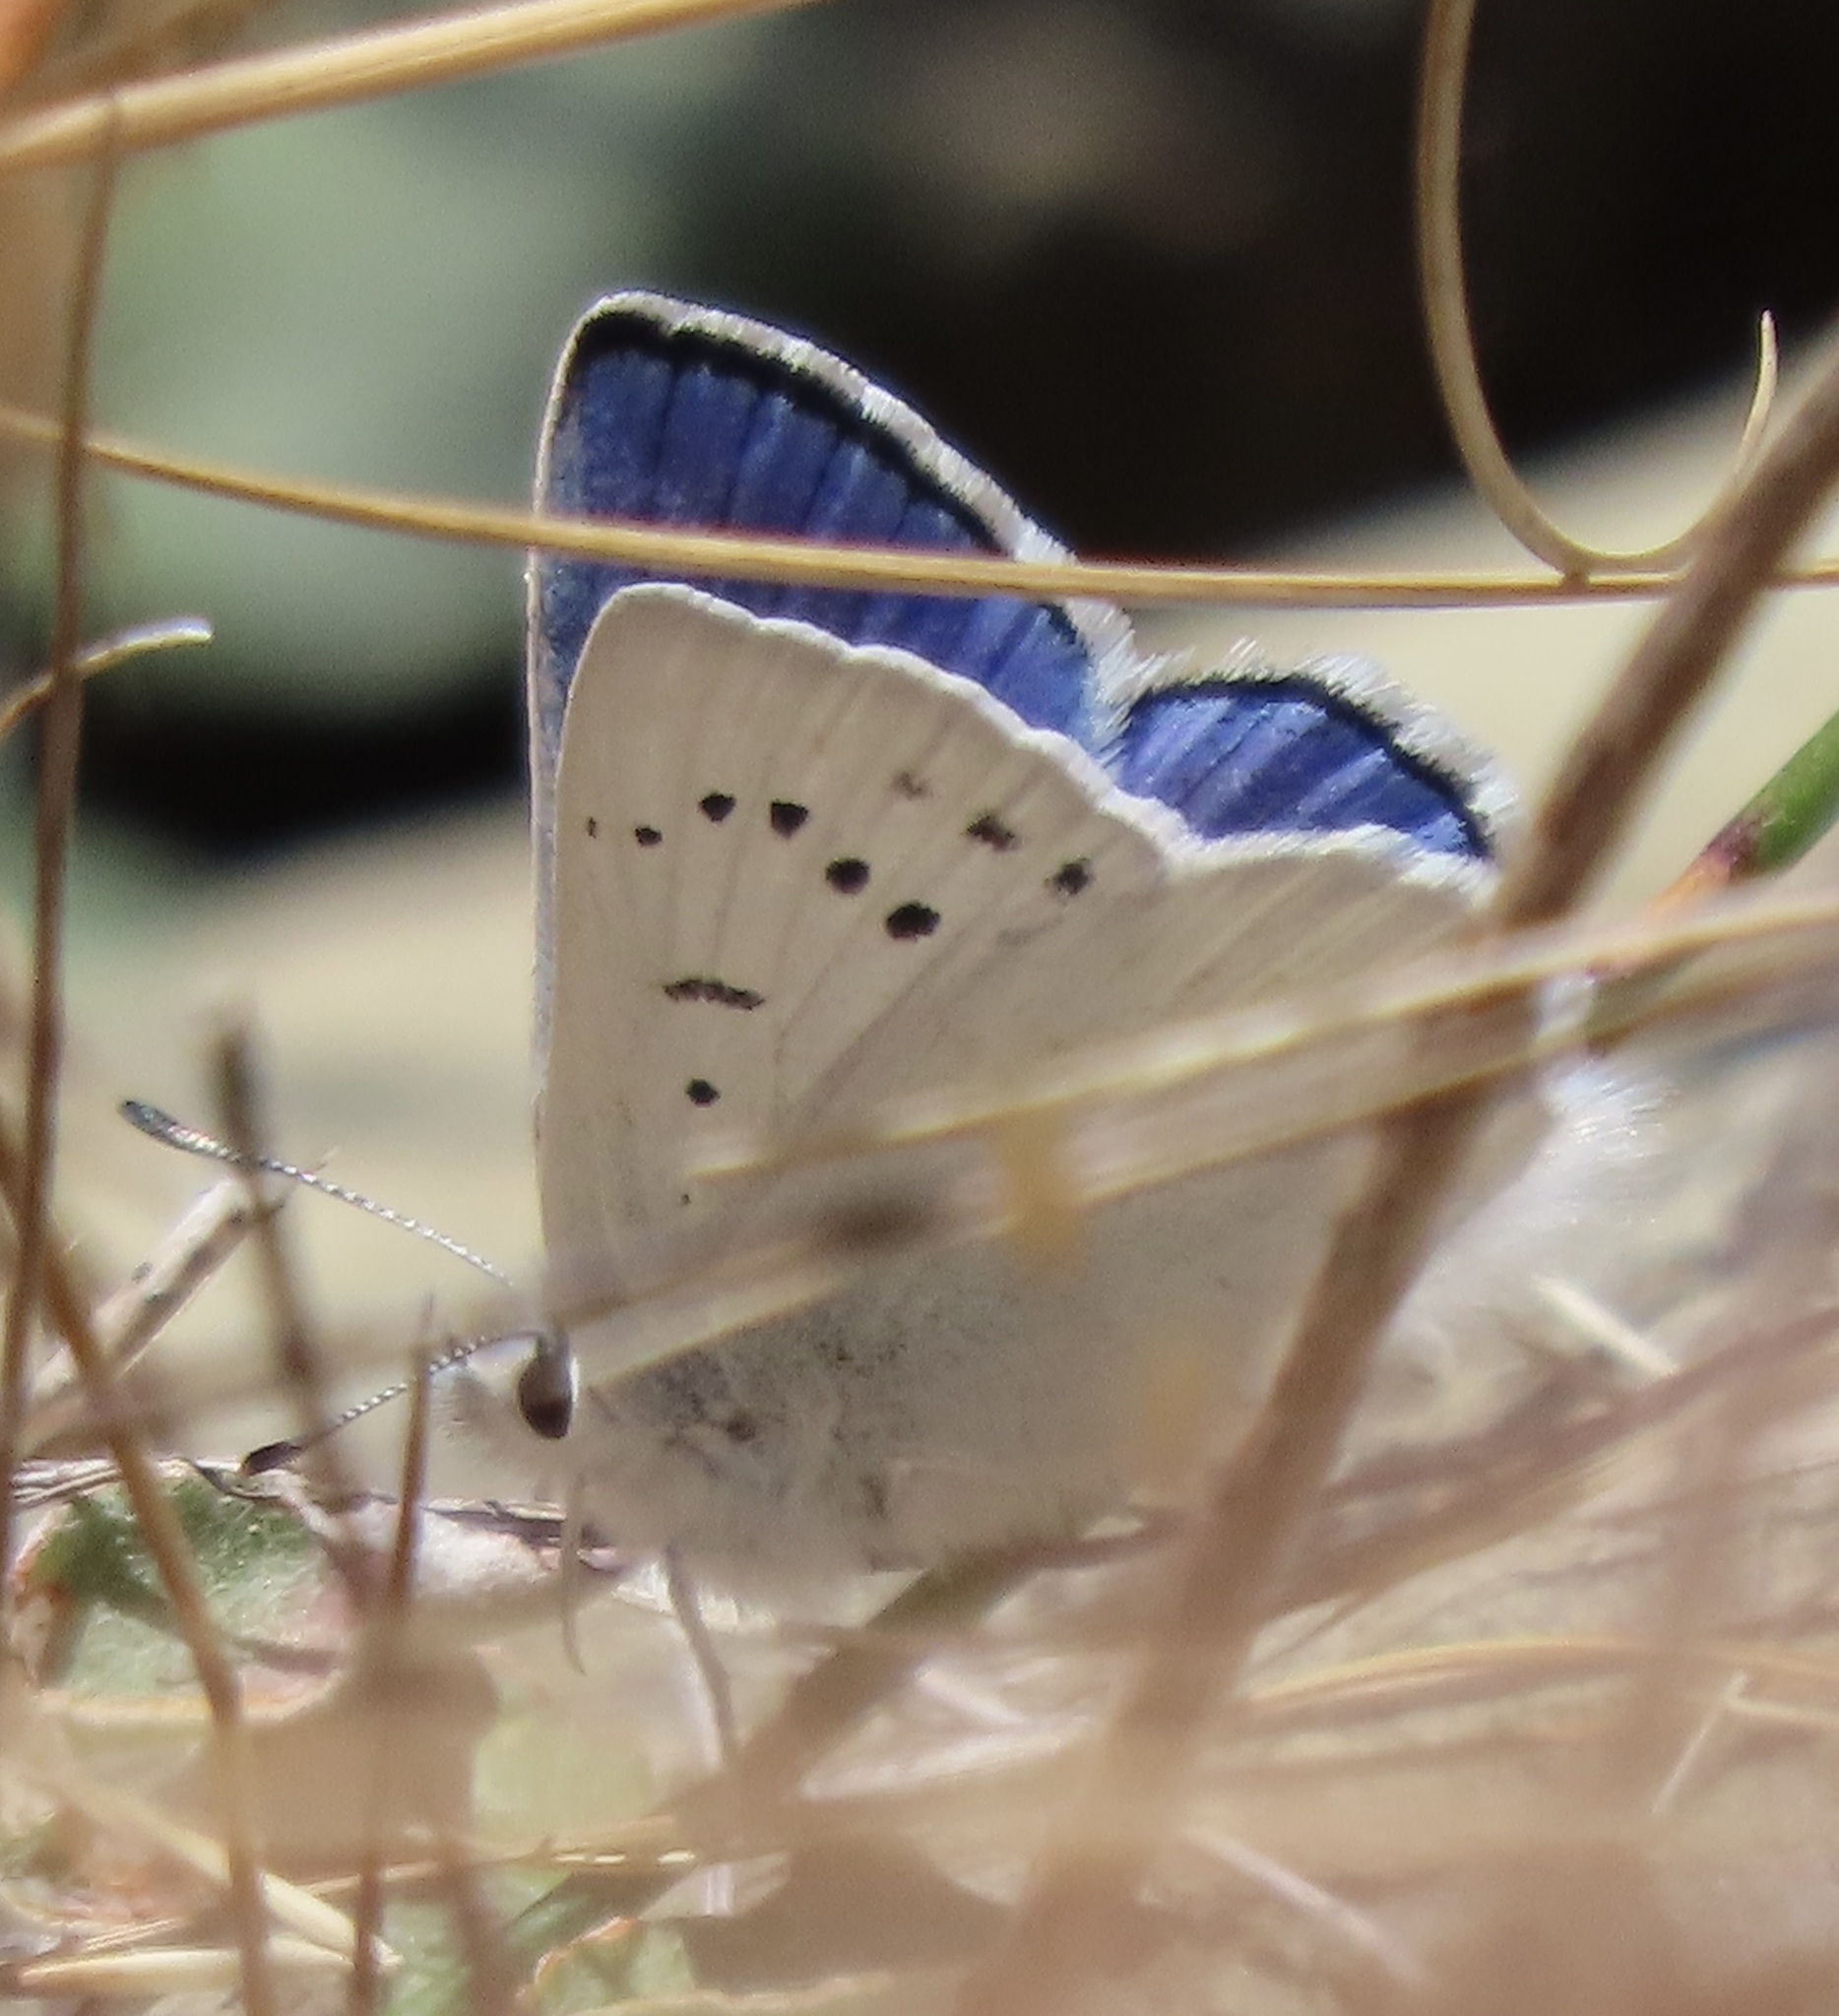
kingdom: Animalia
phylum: Arthropoda
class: Insecta
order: Lepidoptera
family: Lycaenidae
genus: Tharsalea
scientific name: Tharsalea heteronea
